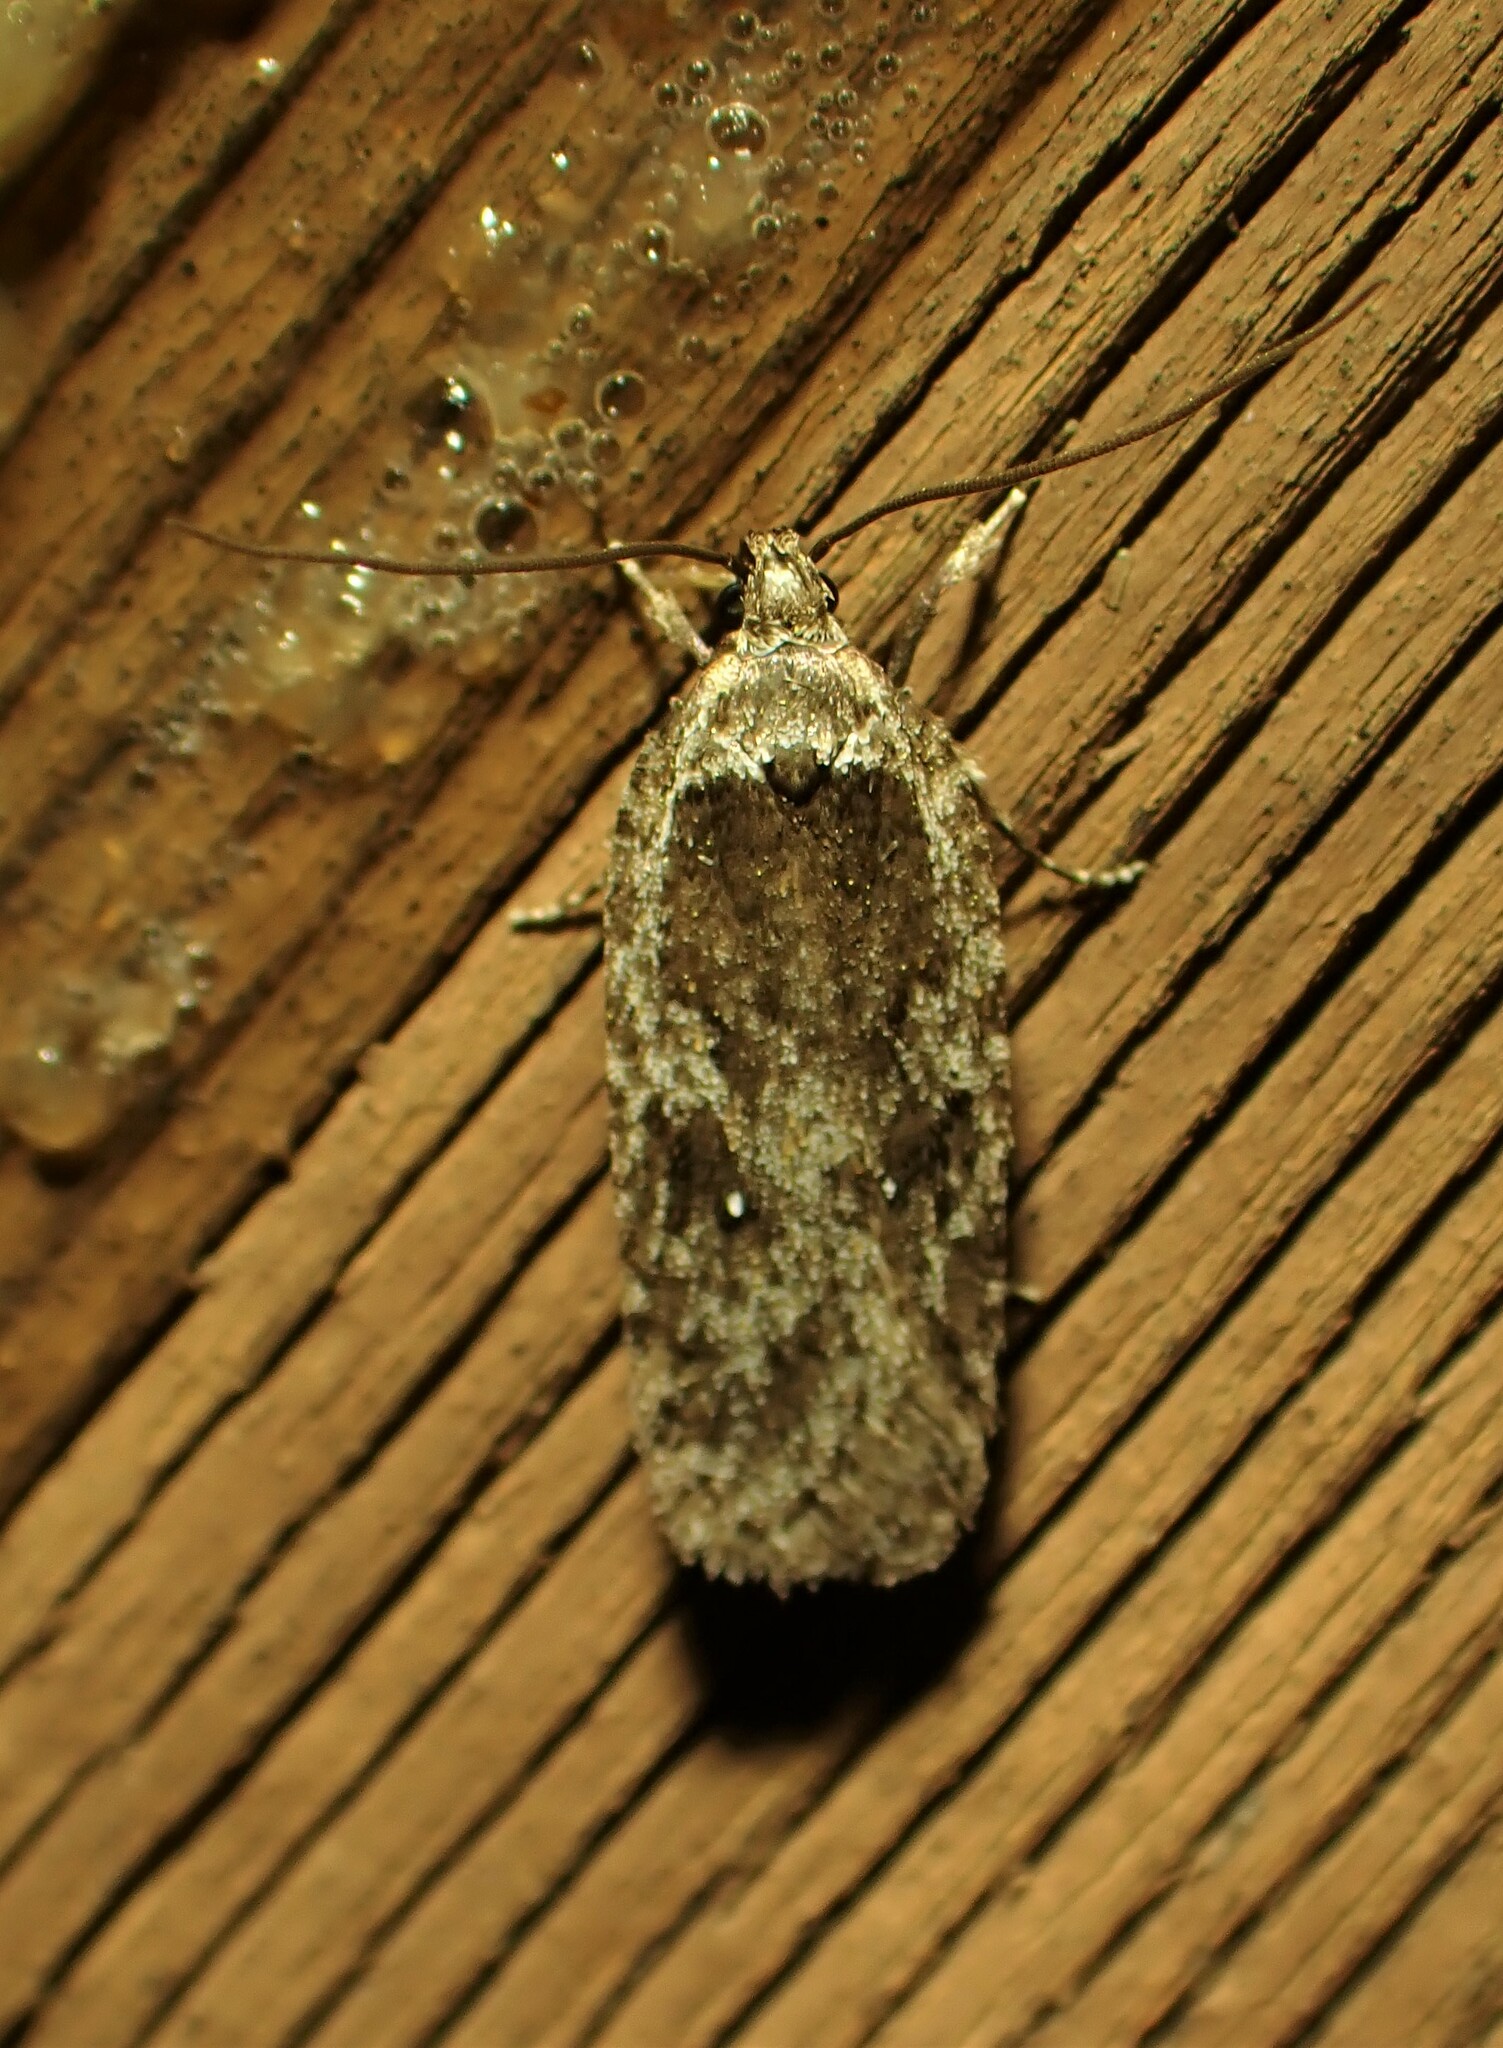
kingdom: Animalia
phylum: Arthropoda
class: Insecta
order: Lepidoptera
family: Depressariidae
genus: Exaeretia
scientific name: Exaeretia ciniflonella
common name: Scotch flat-body
